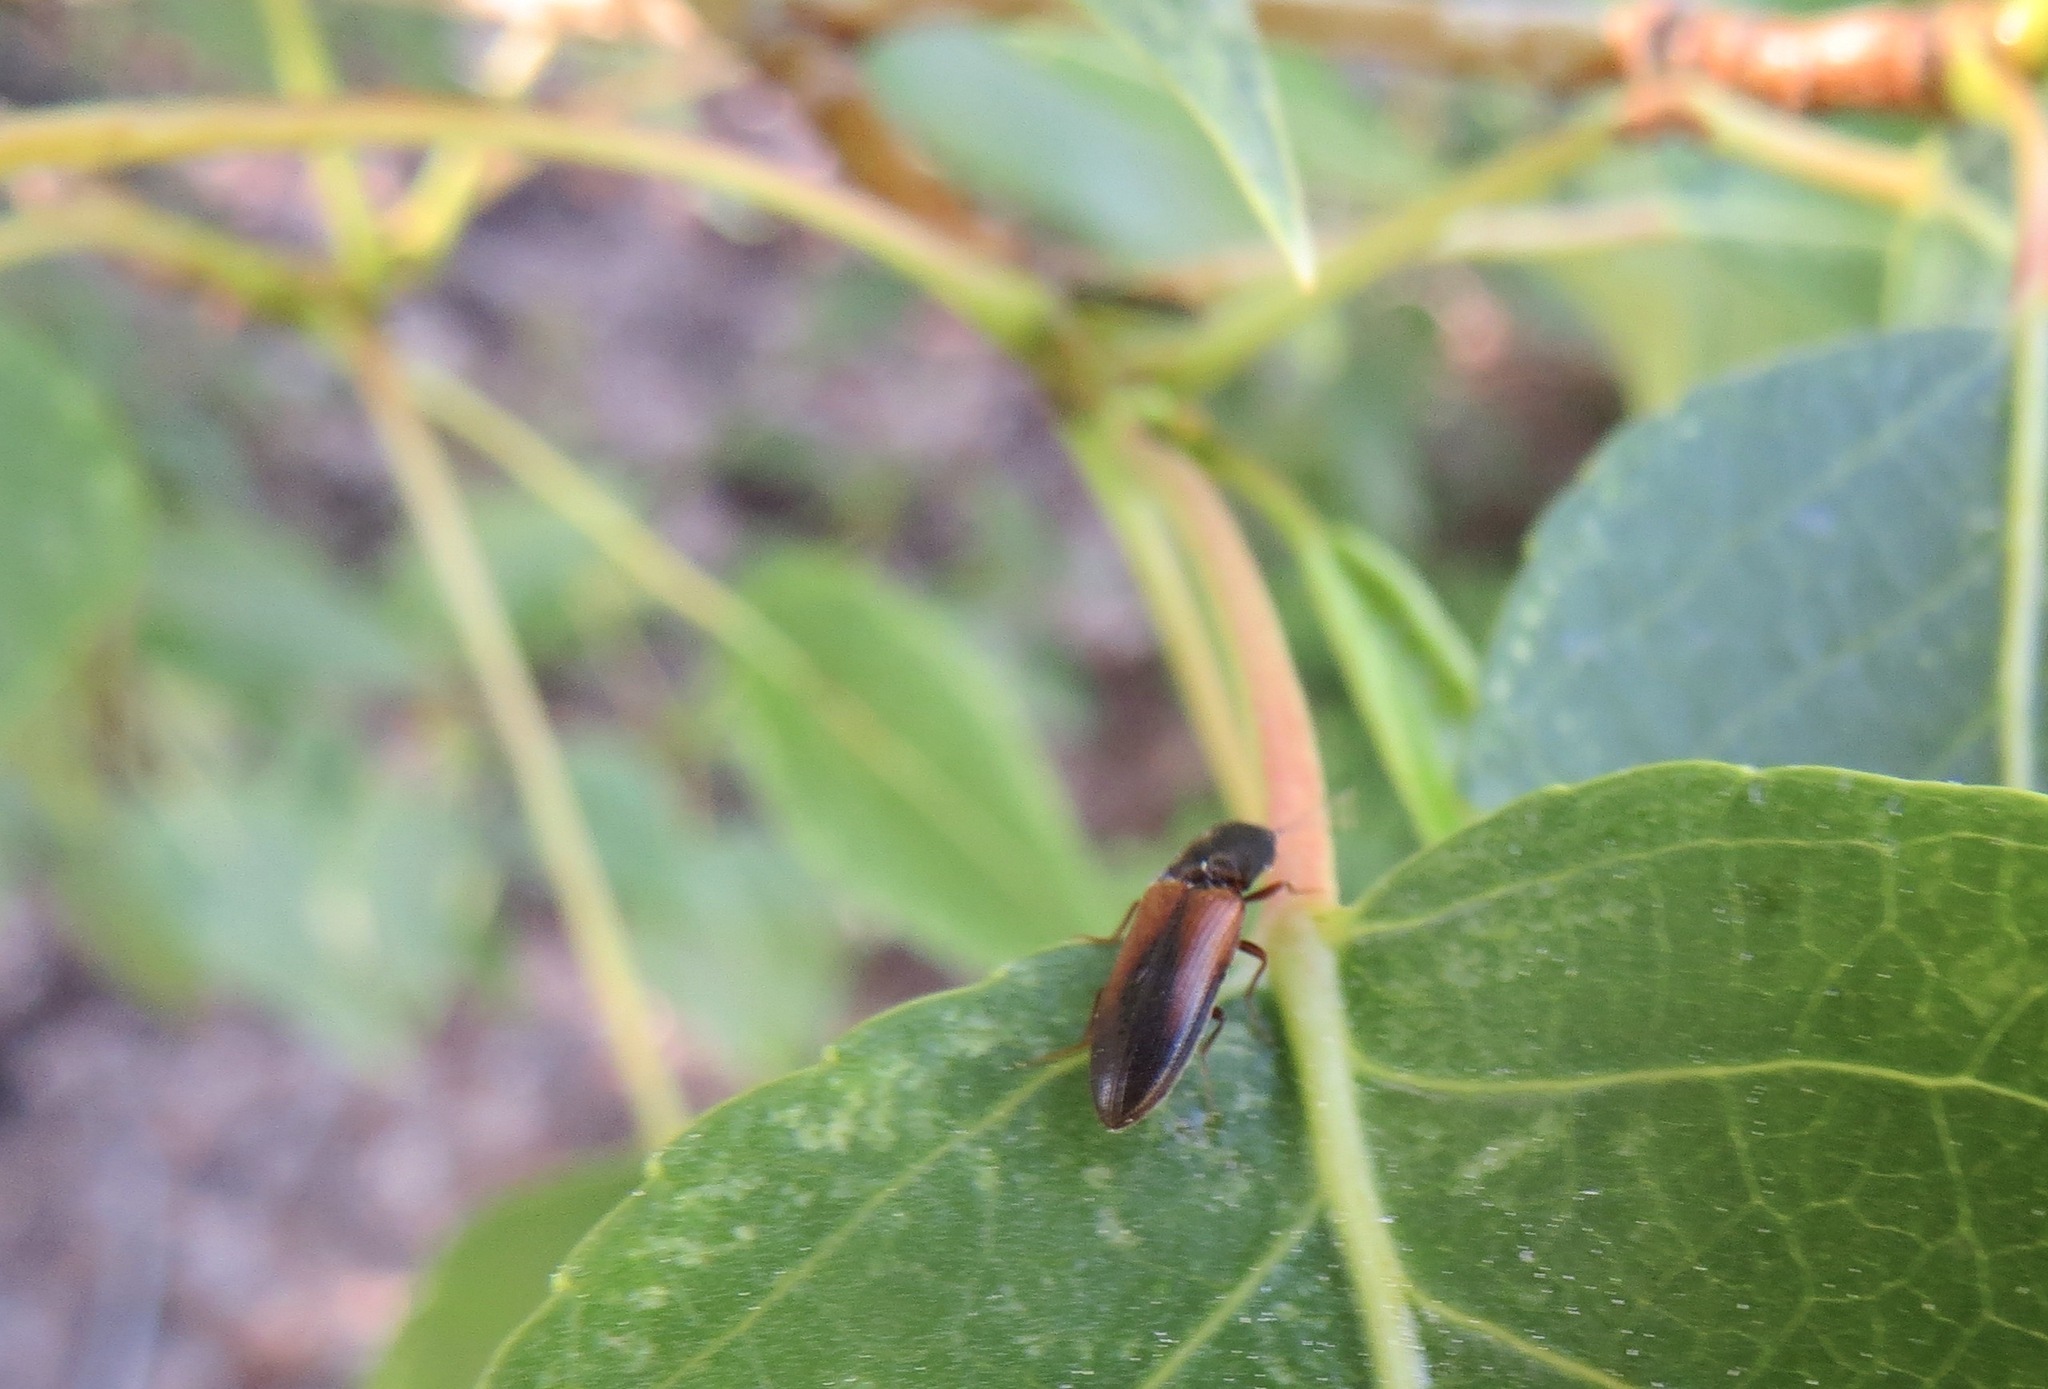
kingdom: Animalia
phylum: Arthropoda
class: Insecta
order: Coleoptera
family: Elateridae
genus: Agriotes
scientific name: Agriotes thevenetii
